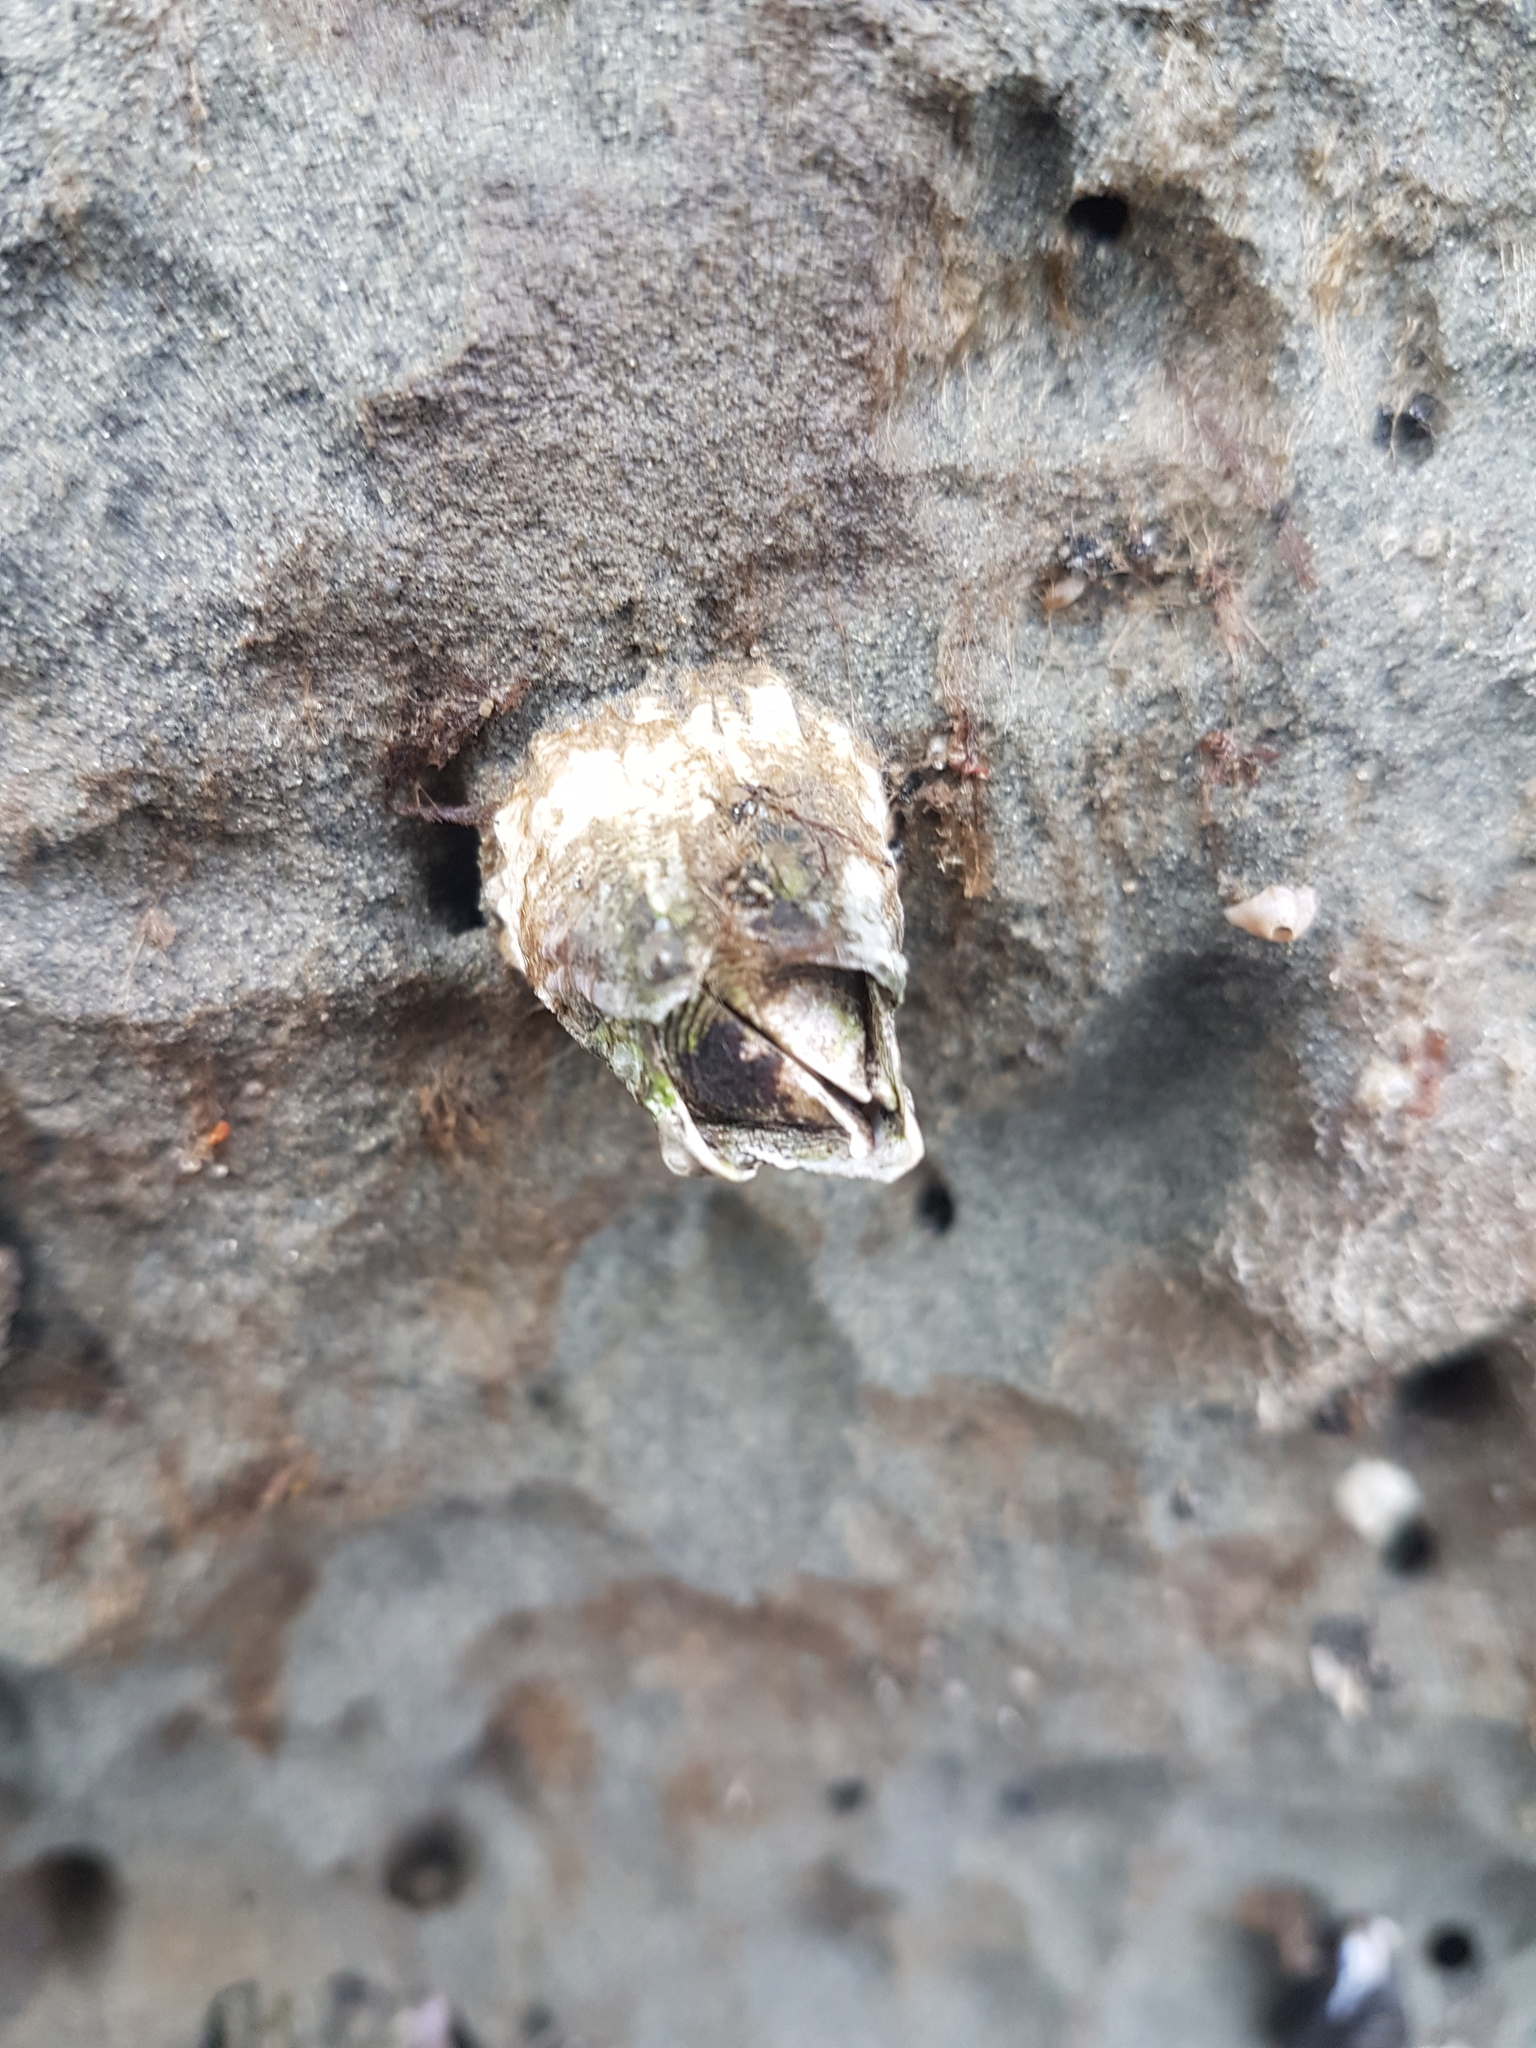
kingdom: Animalia
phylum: Arthropoda
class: Maxillopoda
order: Sessilia
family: Tetraclitidae
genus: Epopella
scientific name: Epopella plicata
